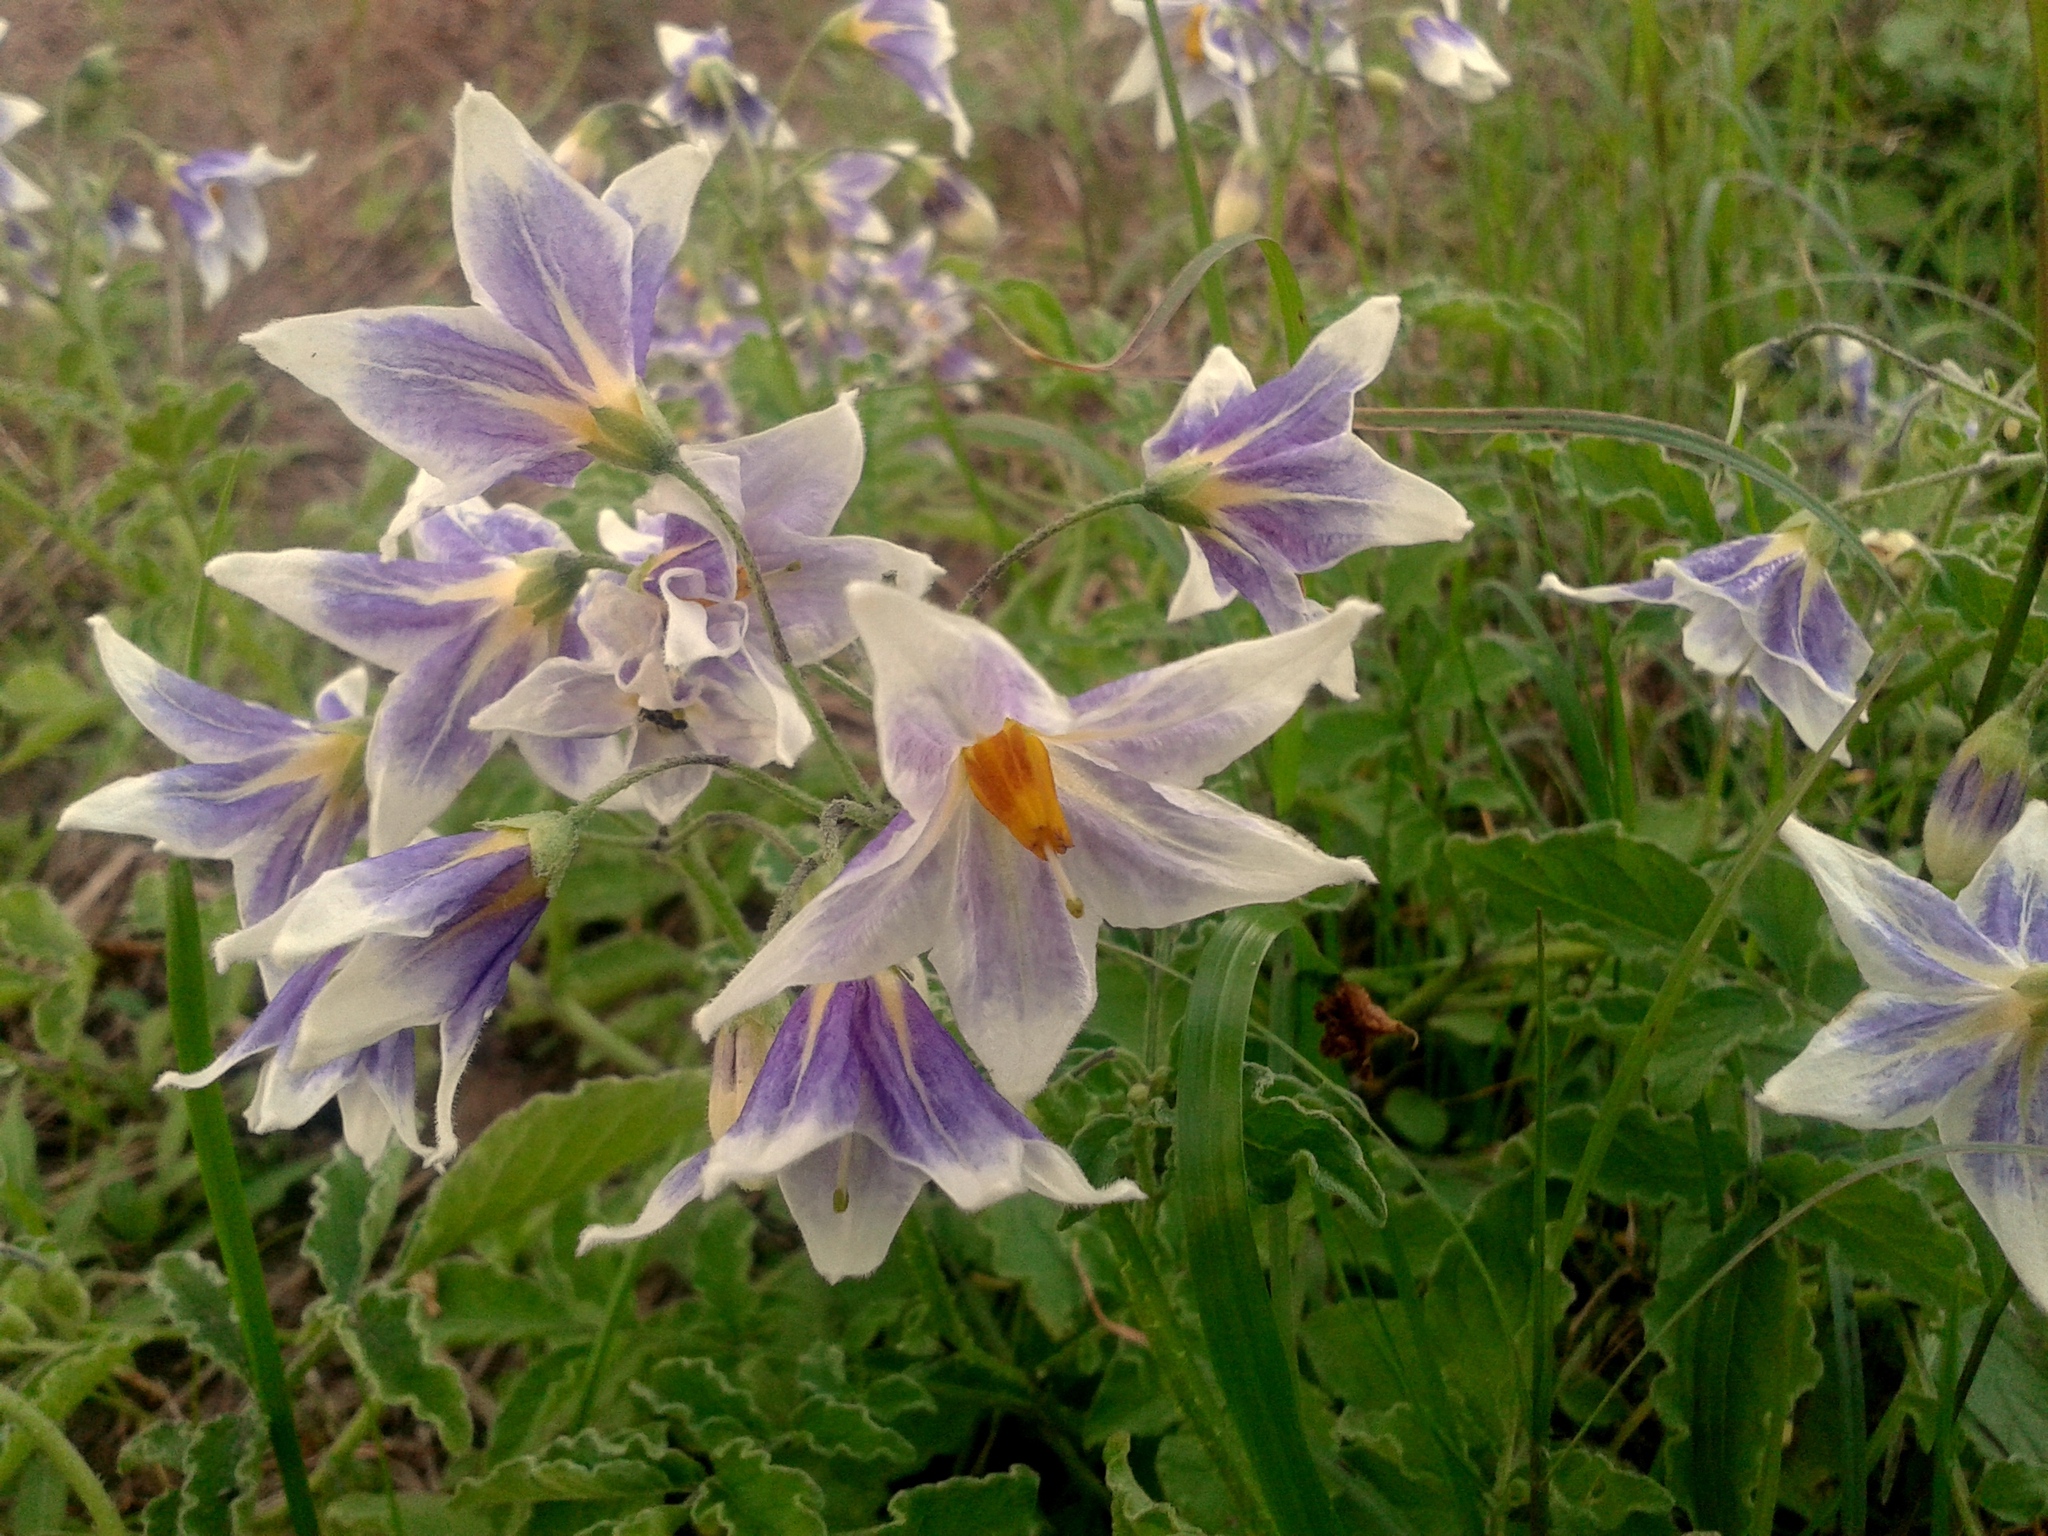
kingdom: Plantae
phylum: Tracheophyta
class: Magnoliopsida
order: Solanales
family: Solanaceae
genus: Solanum
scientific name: Solanum commersonii
